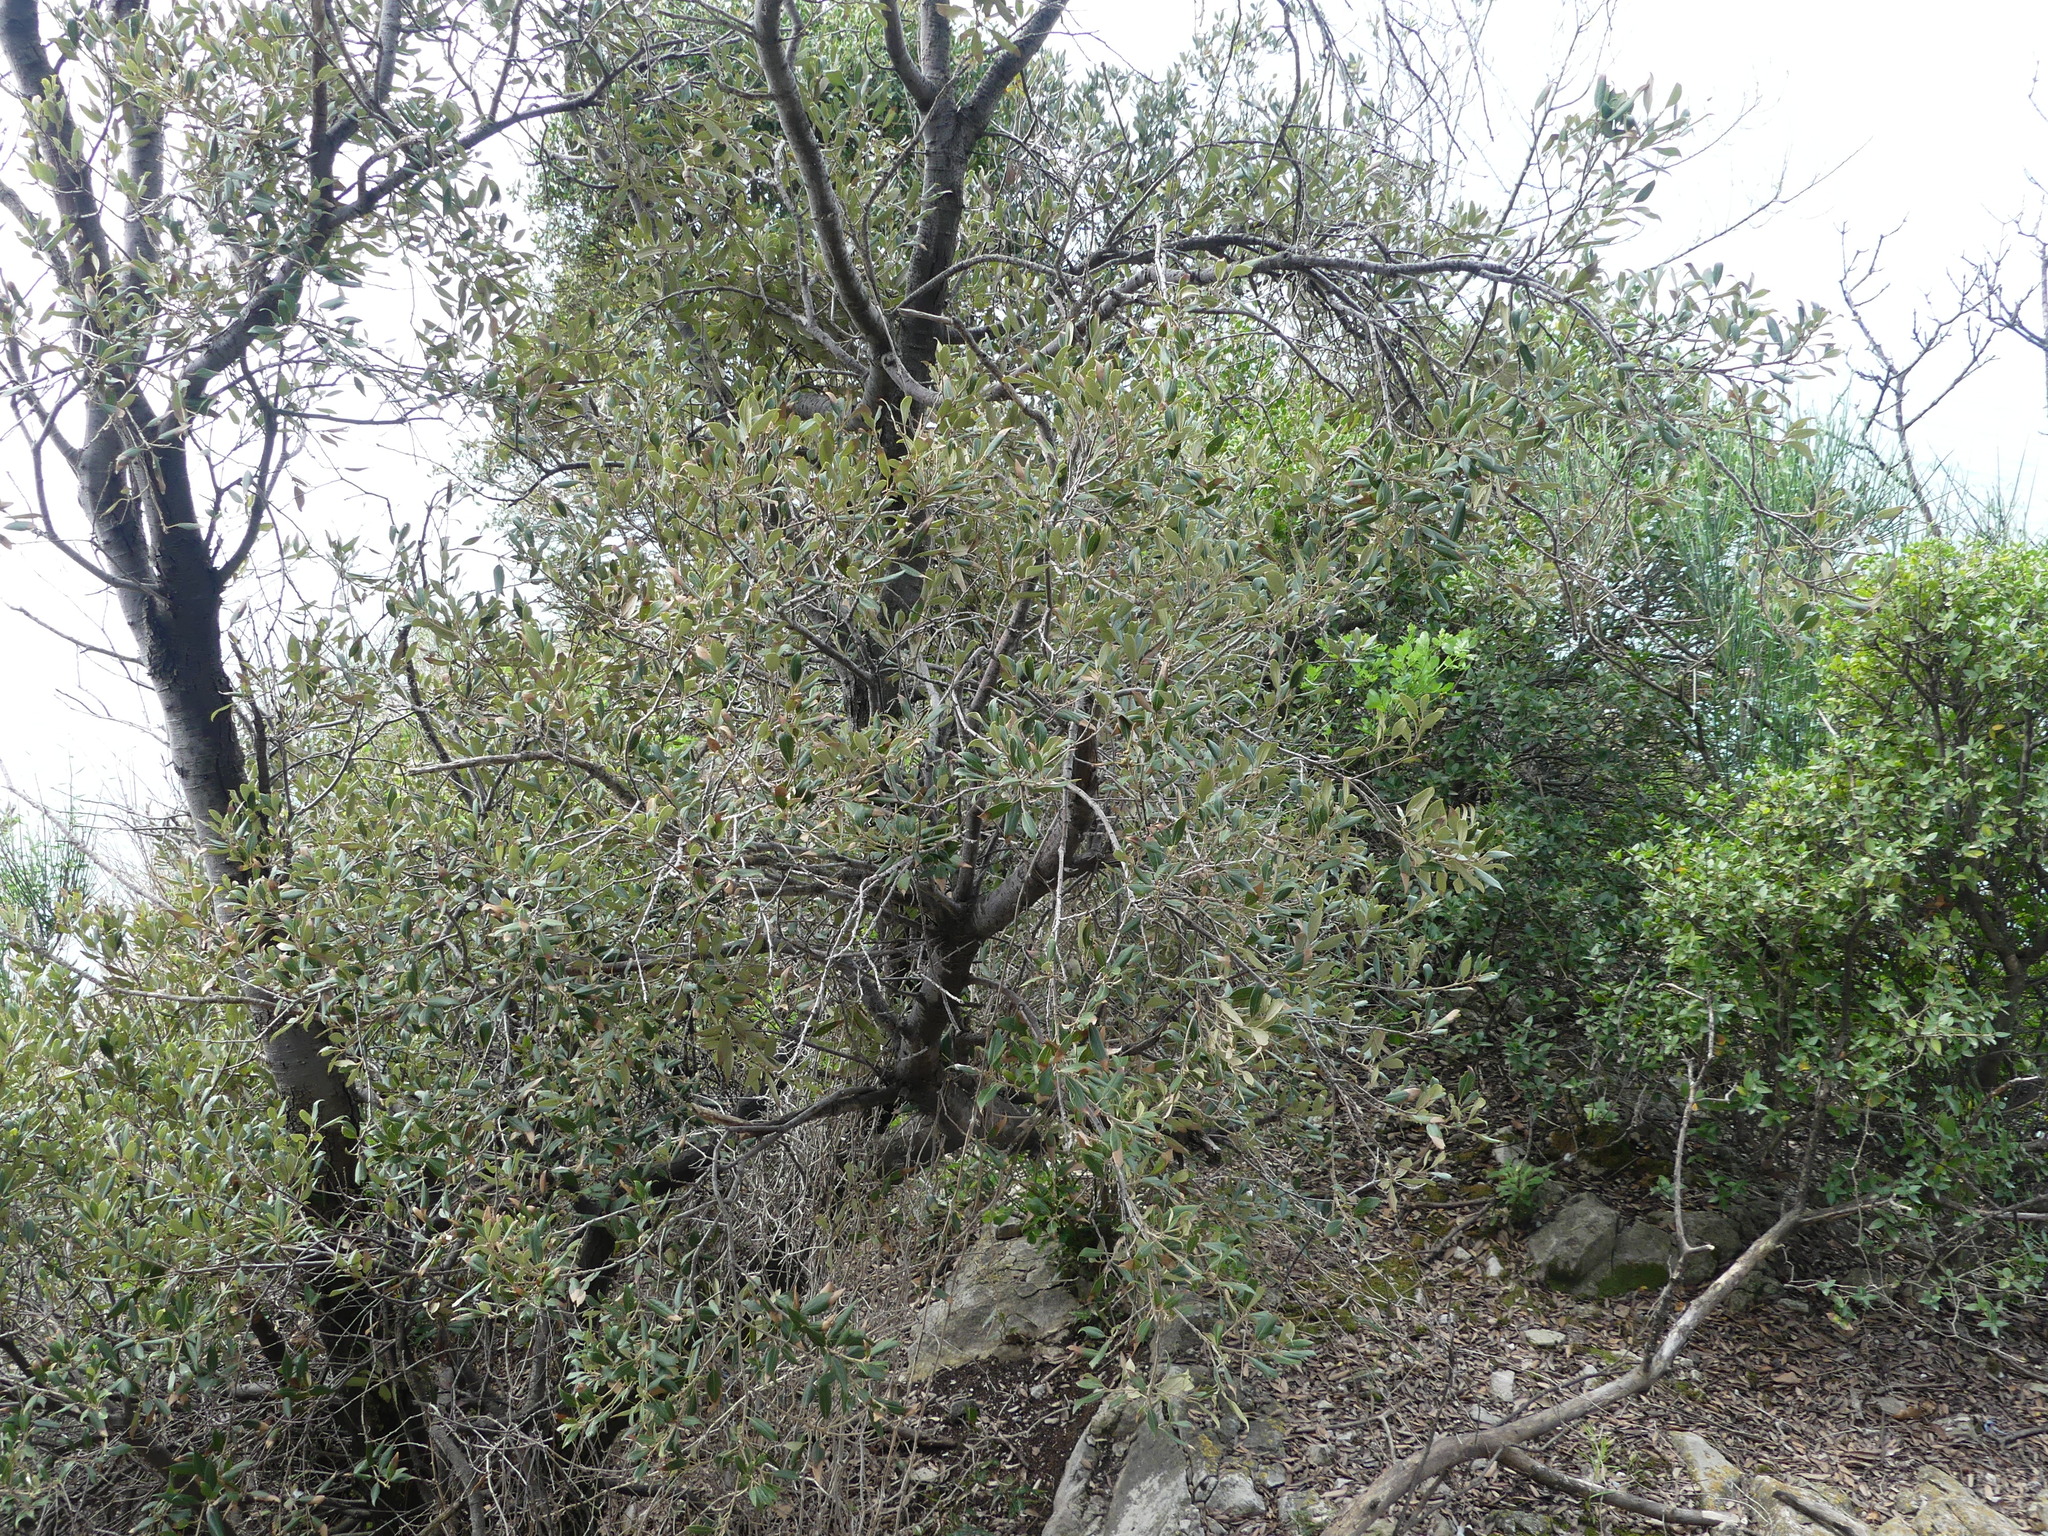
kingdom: Plantae
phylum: Tracheophyta
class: Magnoliopsida
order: Fagales
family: Fagaceae
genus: Quercus
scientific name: Quercus ilex
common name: Evergreen oak
